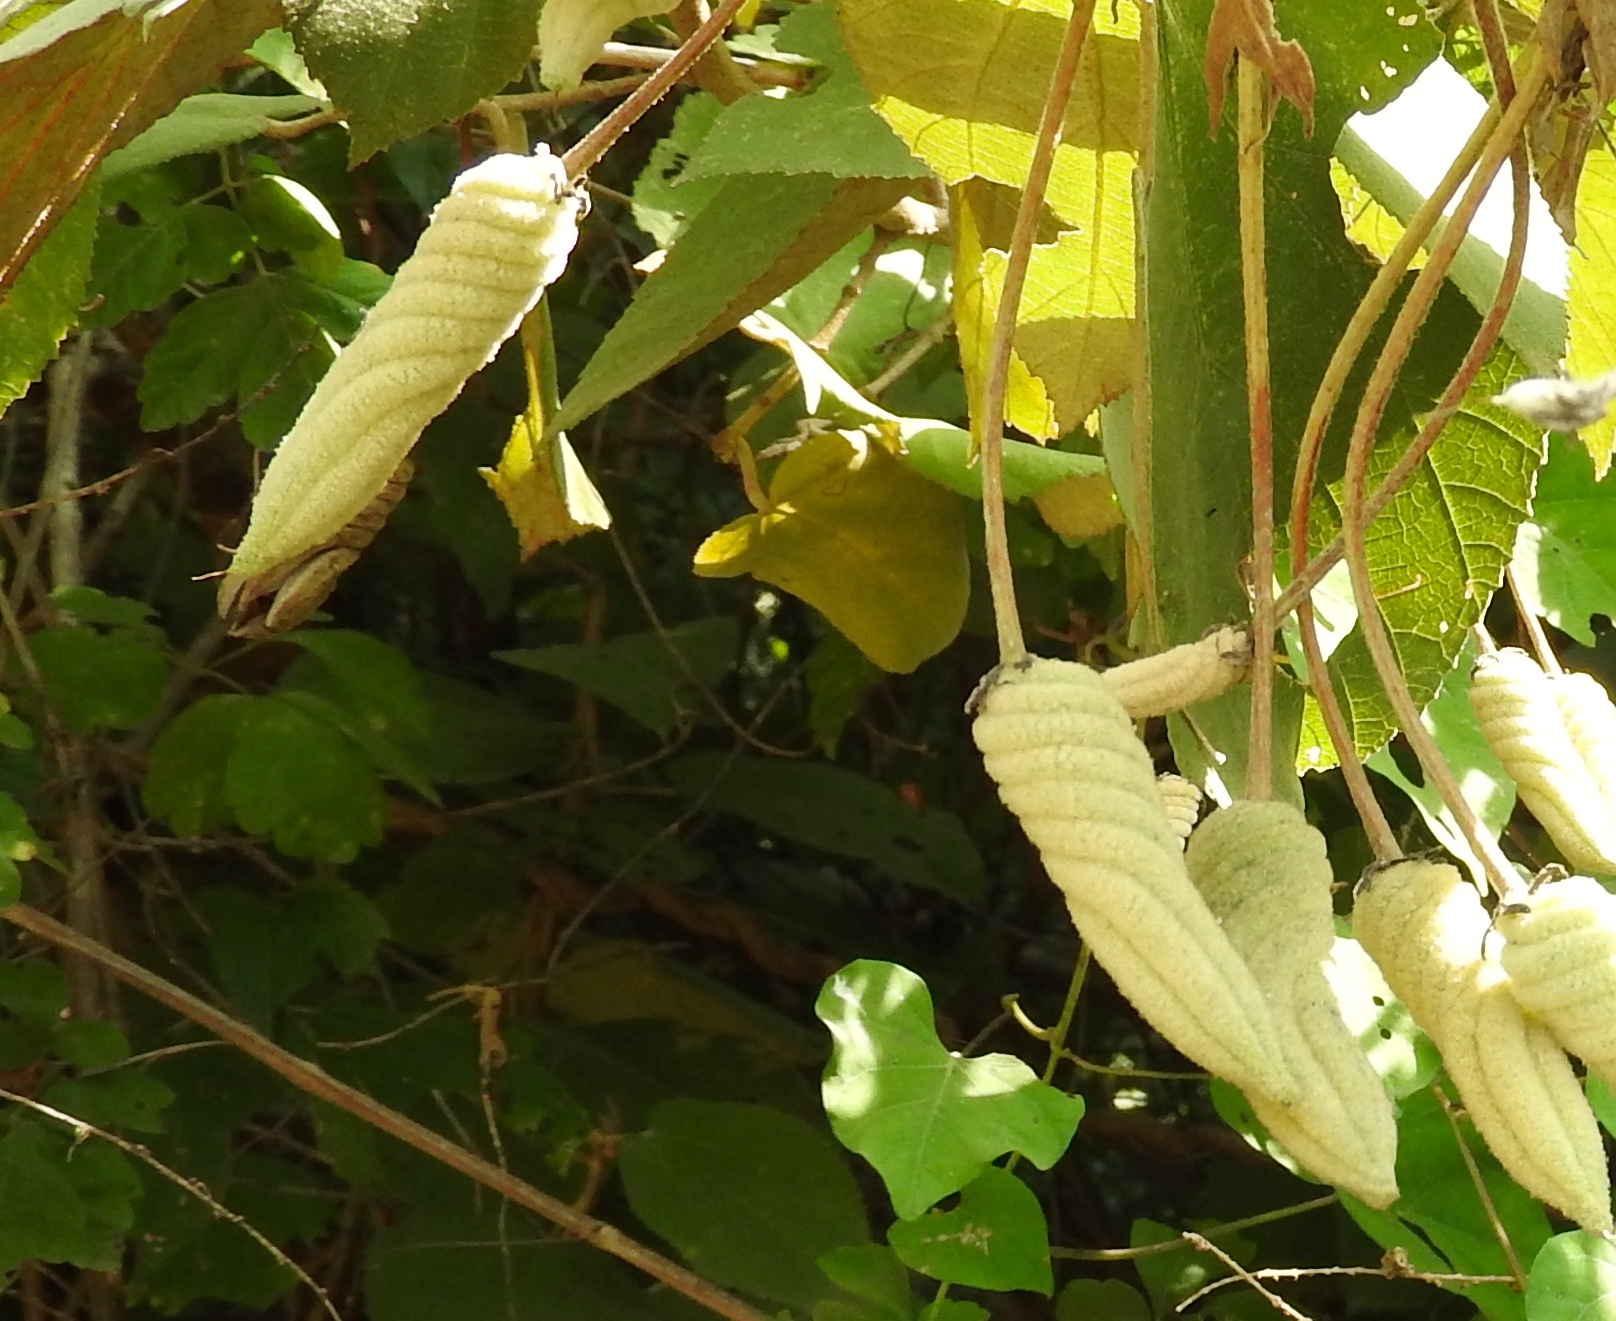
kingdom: Plantae
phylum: Tracheophyta
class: Magnoliopsida
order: Malvales
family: Malvaceae
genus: Helicteres
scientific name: Helicteres baruensis
